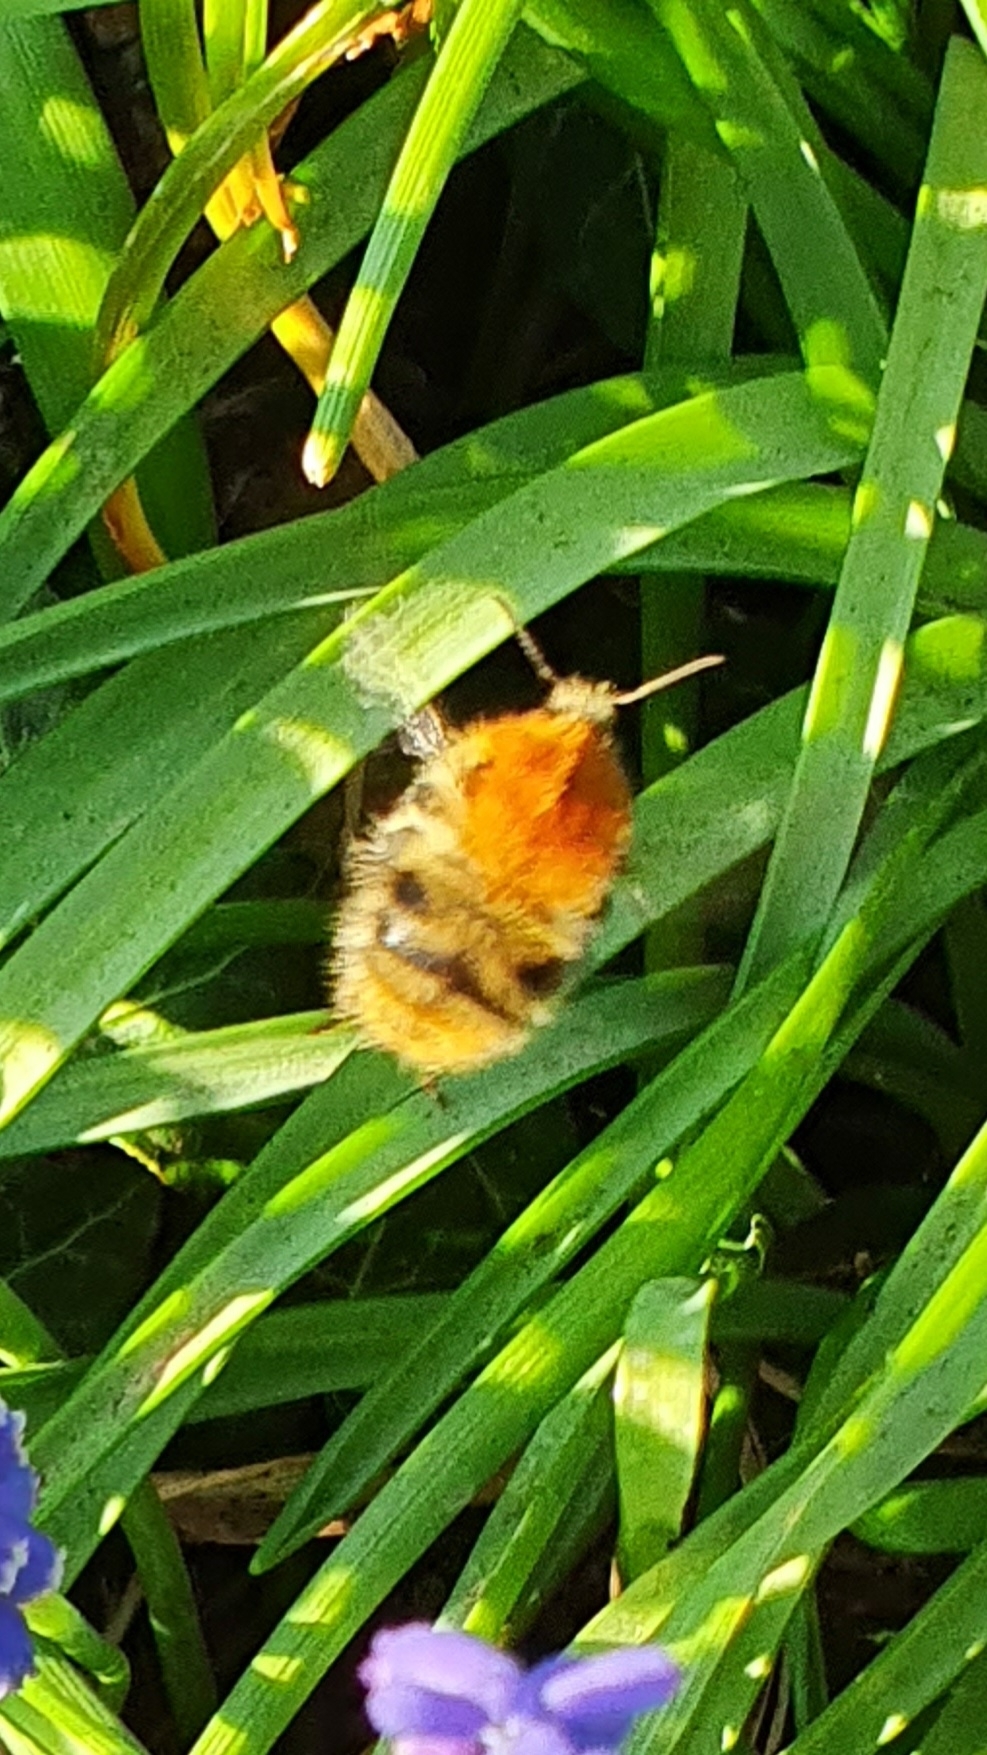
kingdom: Animalia
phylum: Arthropoda
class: Insecta
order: Hymenoptera
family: Apidae
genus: Bombus
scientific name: Bombus pascuorum
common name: Common carder bee
